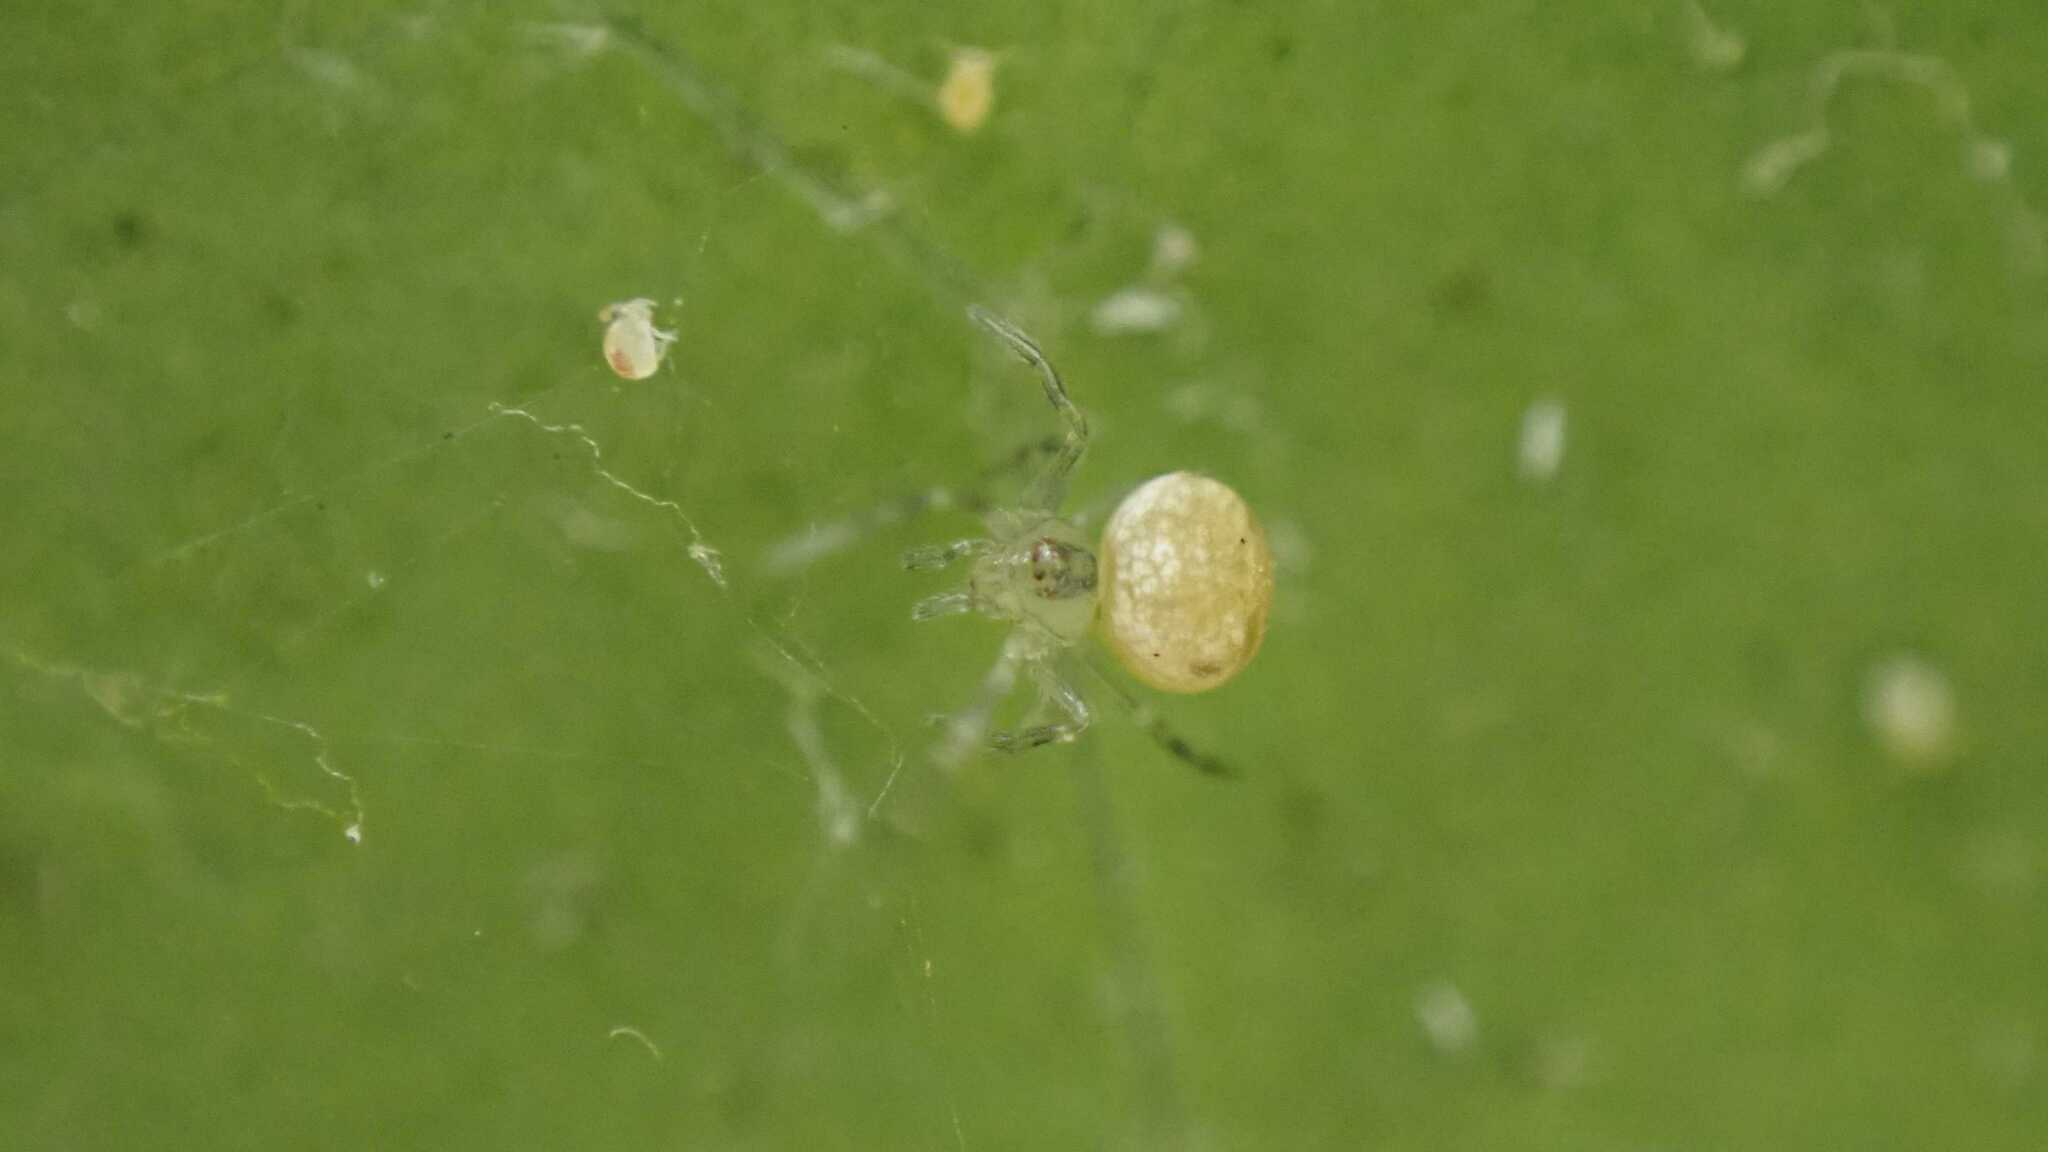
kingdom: Animalia
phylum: Arthropoda
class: Arachnida
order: Araneae
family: Theridiidae
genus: Paidiscura
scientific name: Paidiscura pallens
